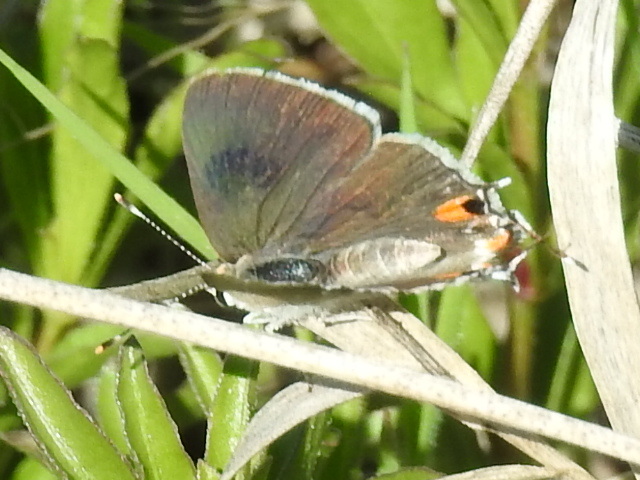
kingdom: Animalia
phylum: Arthropoda
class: Insecta
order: Lepidoptera
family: Lycaenidae
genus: Strymon
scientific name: Strymon melinus
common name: Gray hairstreak
